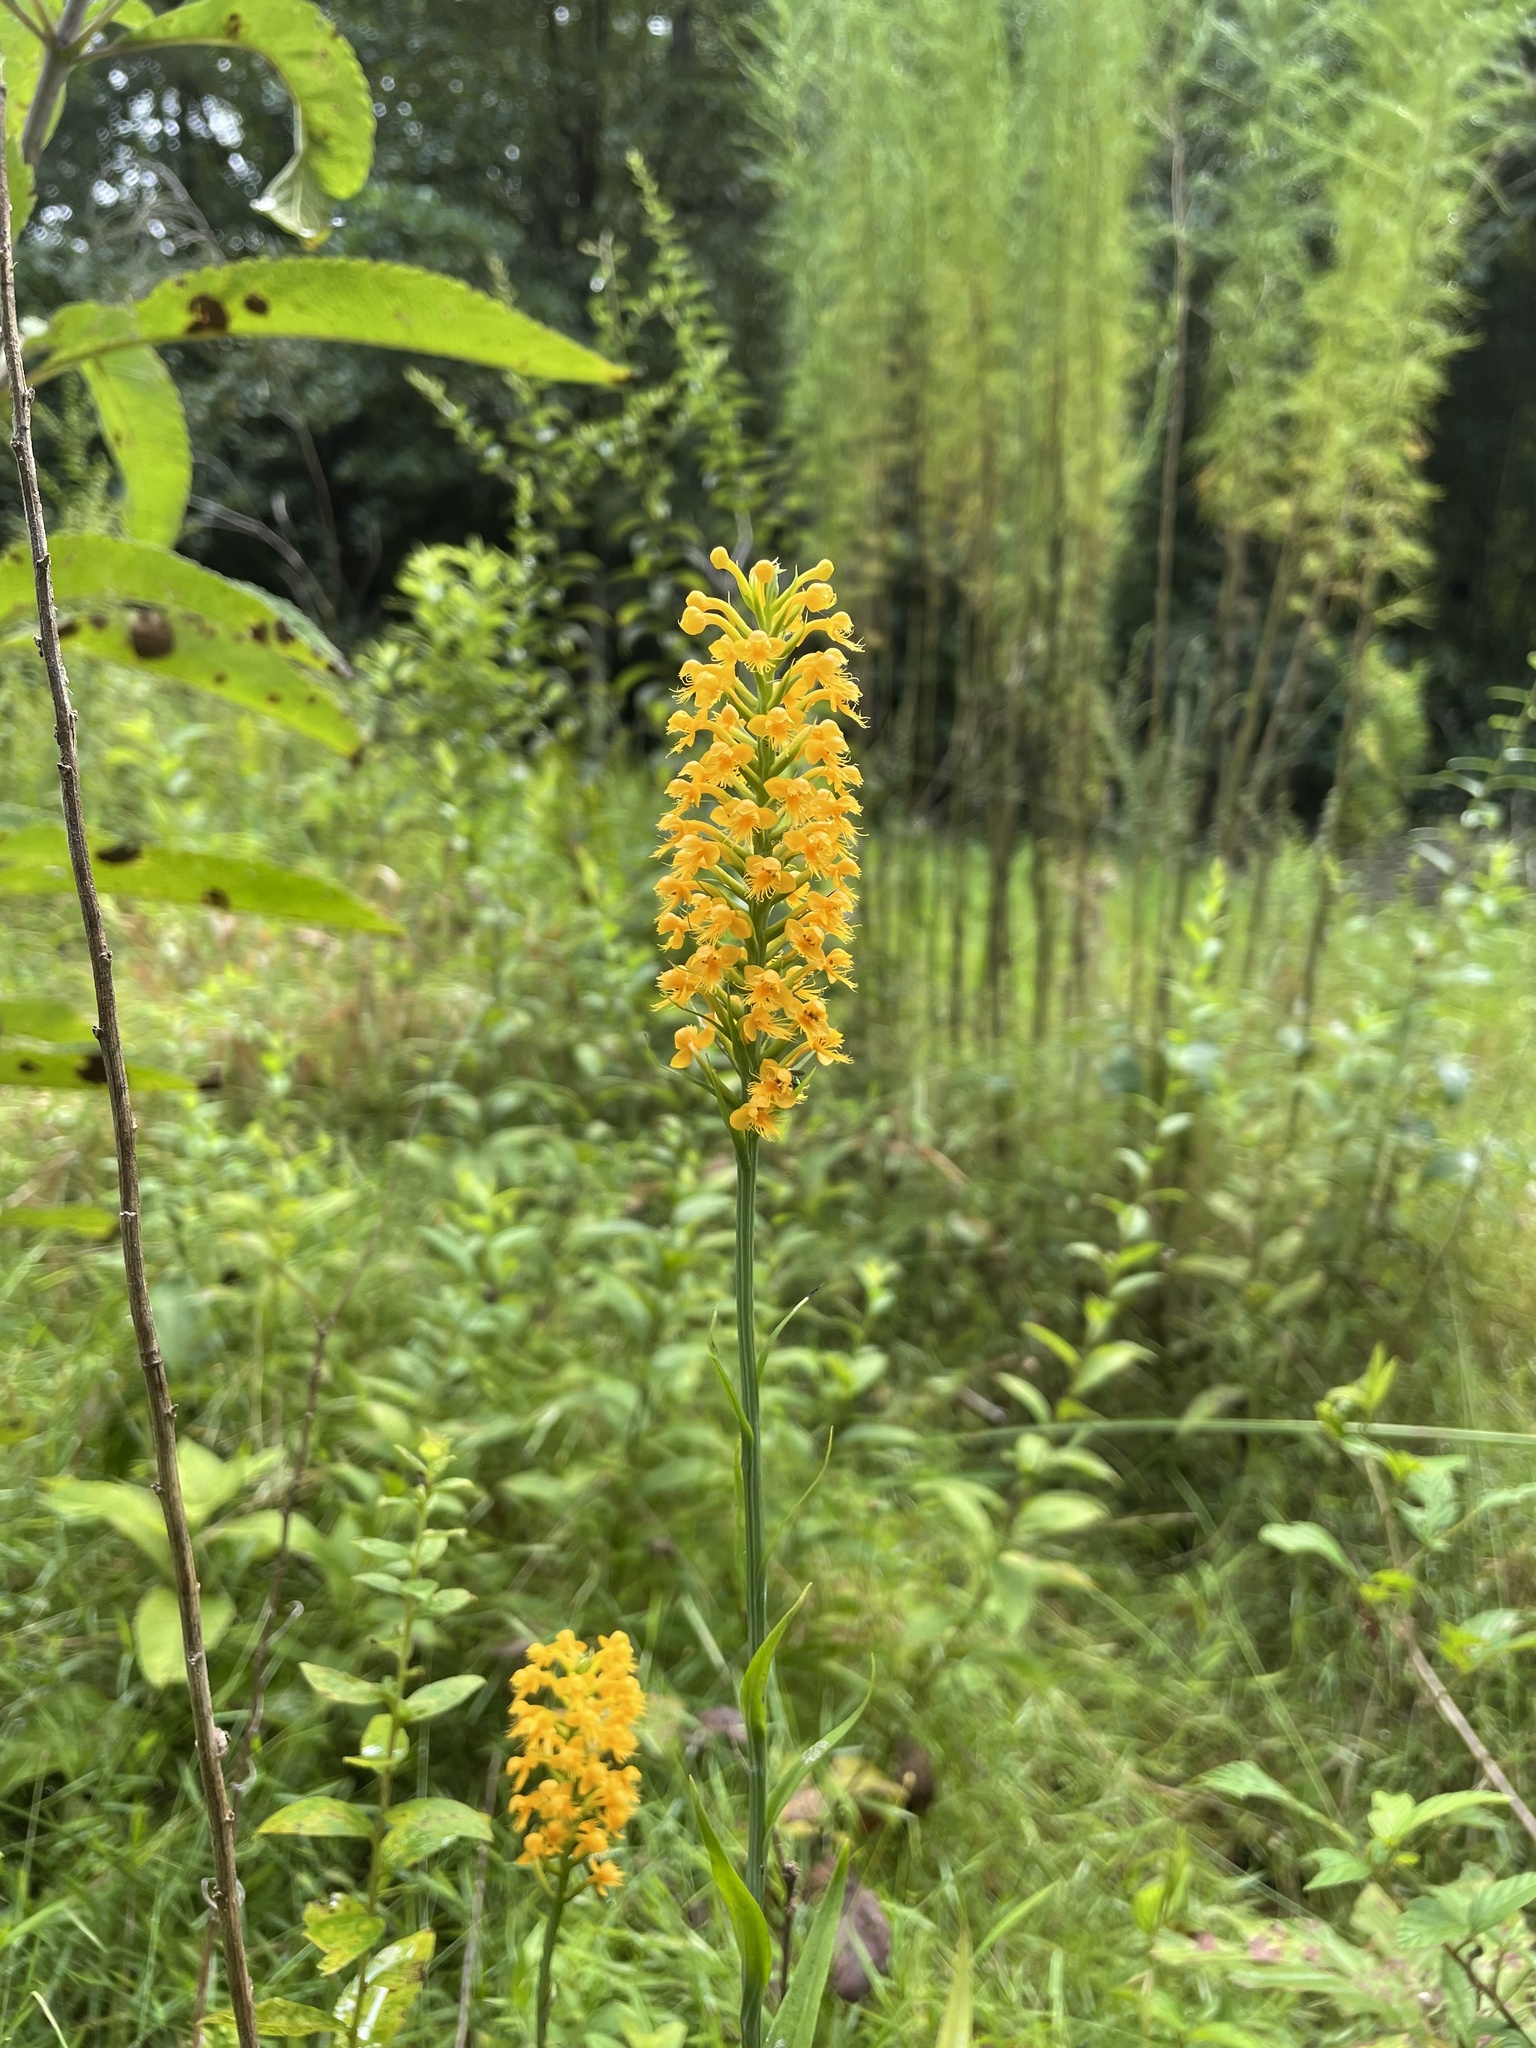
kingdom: Plantae
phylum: Tracheophyta
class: Liliopsida
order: Asparagales
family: Orchidaceae
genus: Platanthera
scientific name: Platanthera cristata
